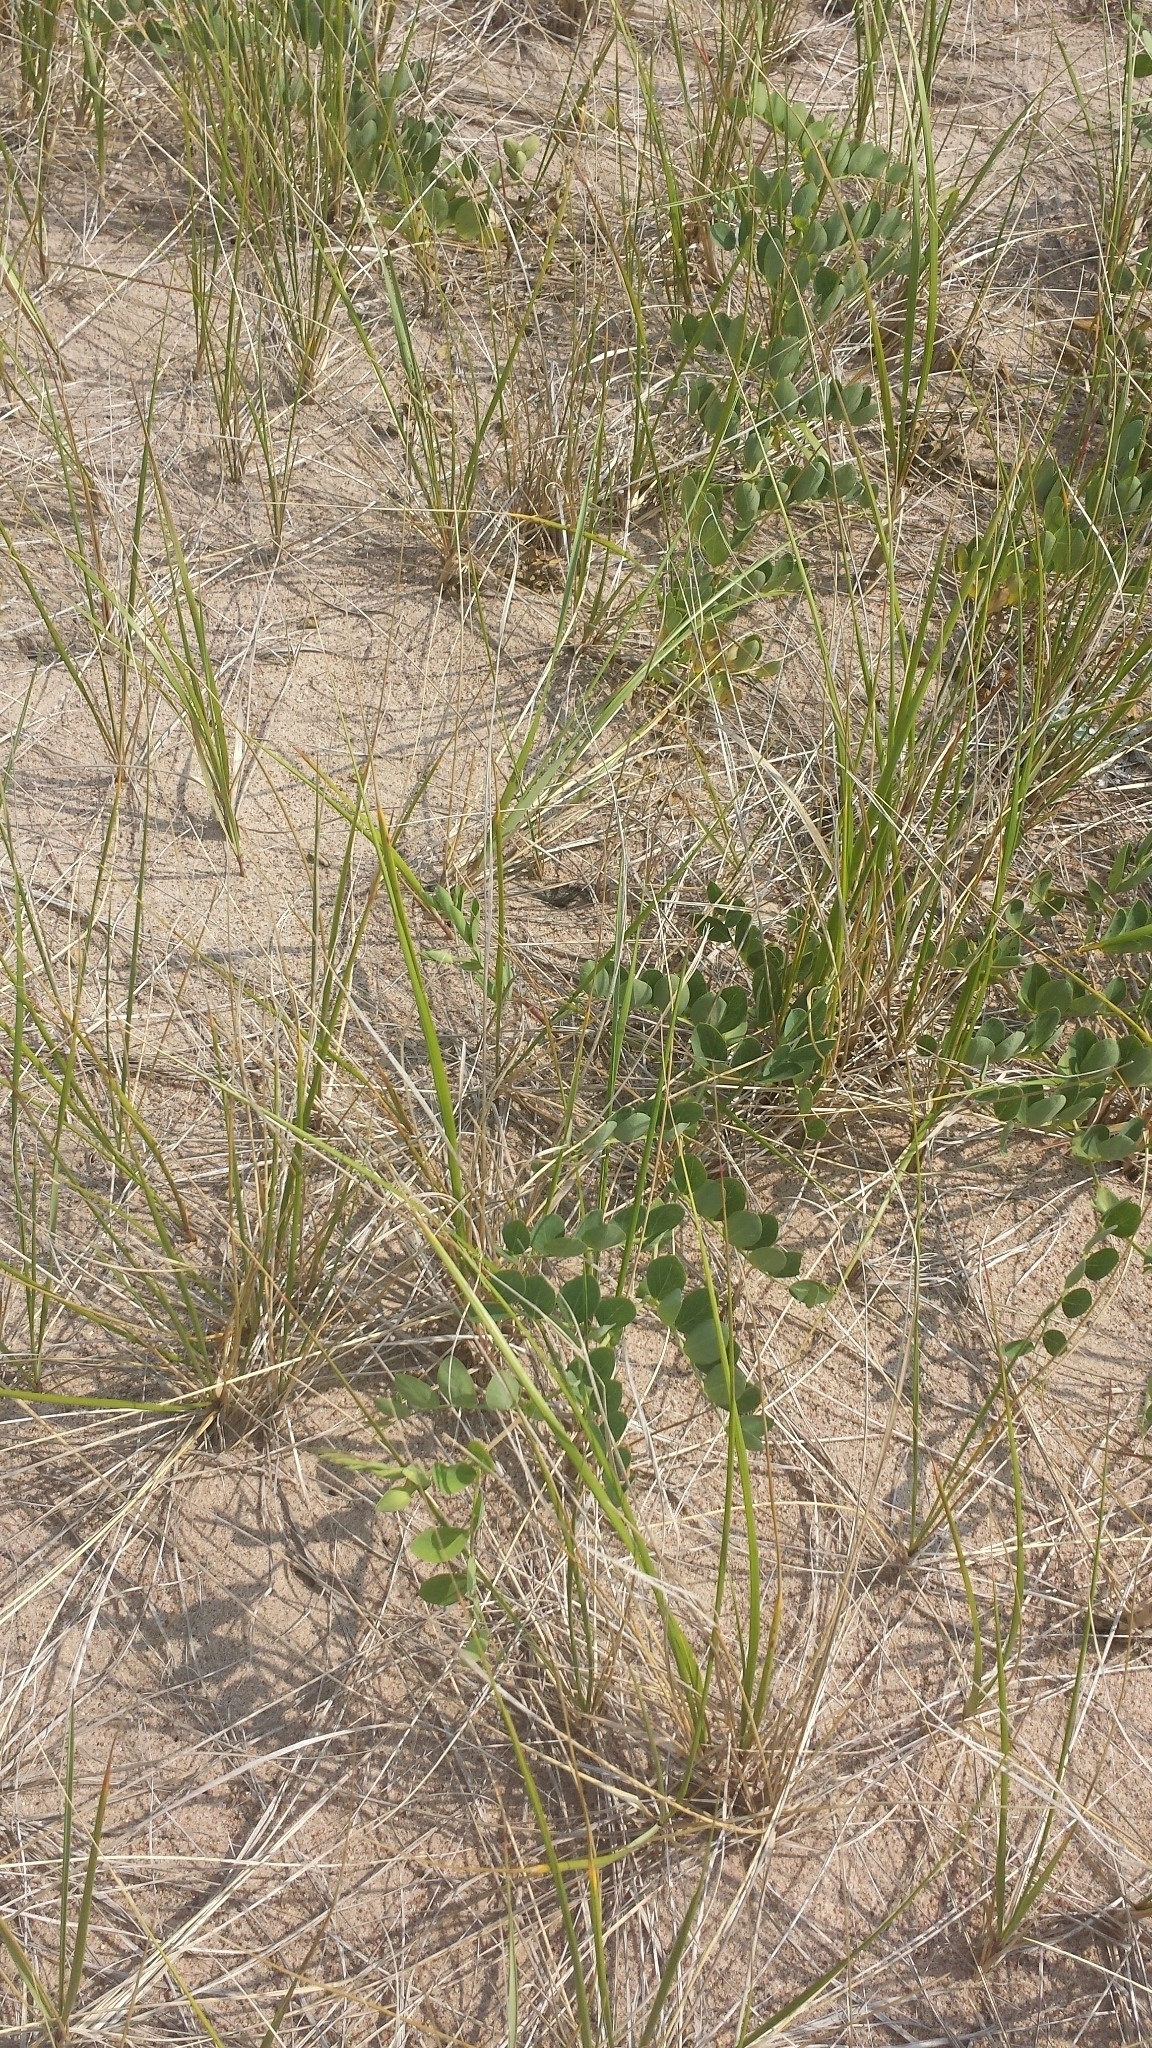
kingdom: Plantae
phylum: Tracheophyta
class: Magnoliopsida
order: Fabales
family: Fabaceae
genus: Lathyrus
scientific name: Lathyrus japonicus
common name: Sea pea
